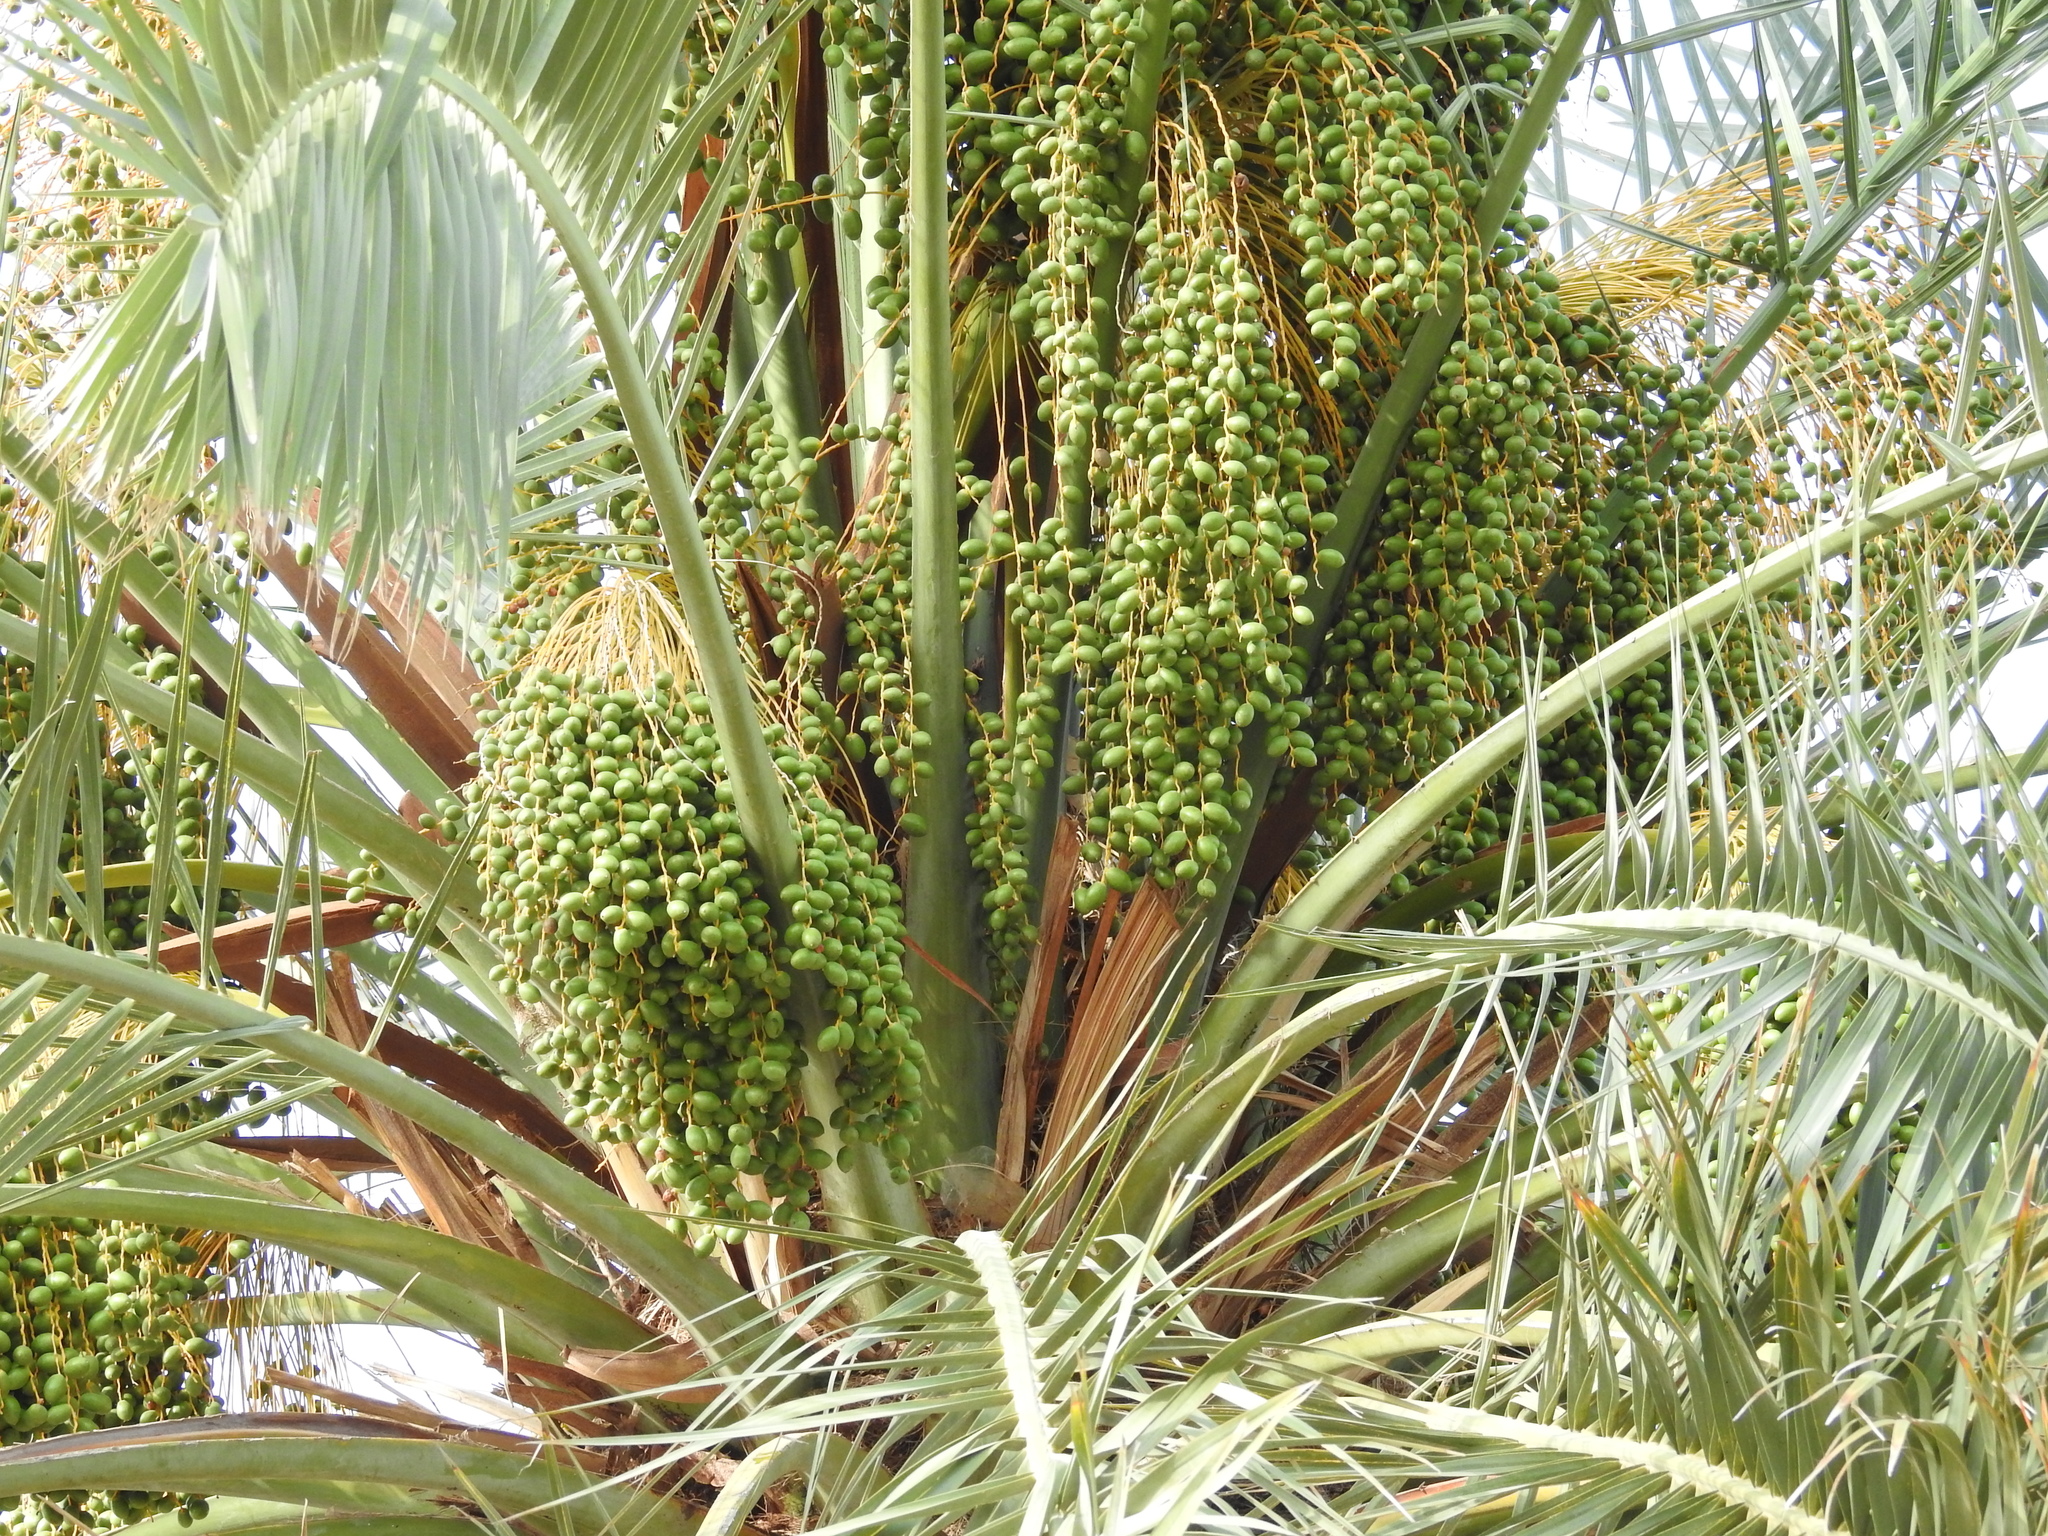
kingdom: Plantae
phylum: Tracheophyta
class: Liliopsida
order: Arecales
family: Arecaceae
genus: Phoenix
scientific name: Phoenix dactylifera
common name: Date palm
